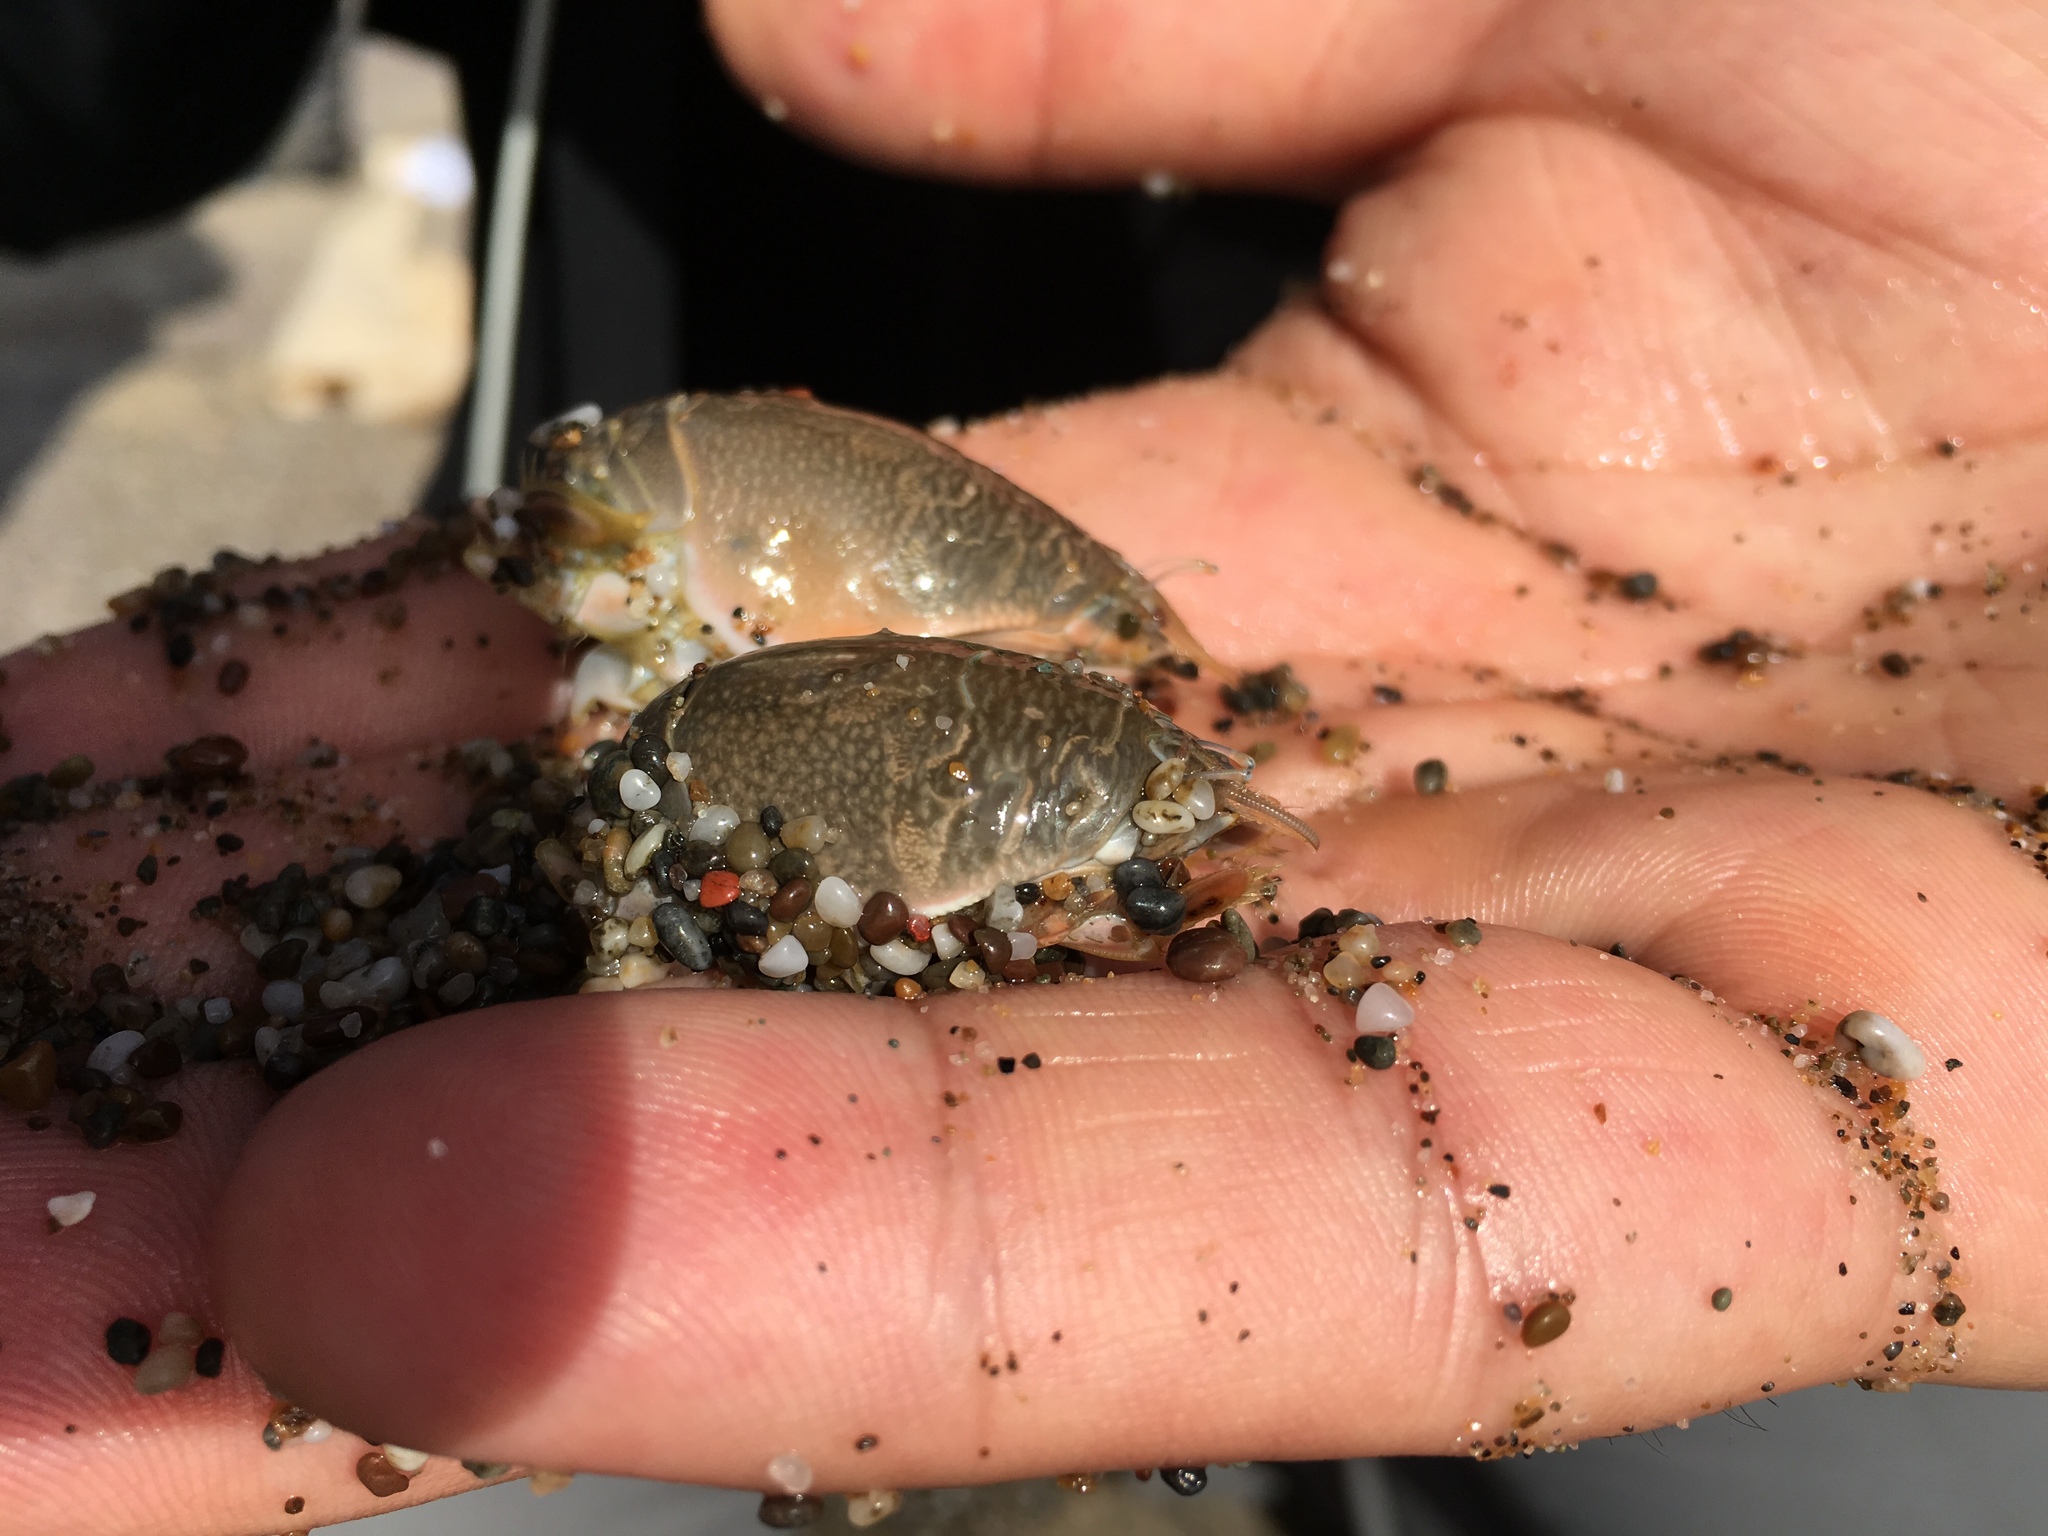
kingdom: Animalia
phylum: Arthropoda
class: Malacostraca
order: Decapoda
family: Hippidae
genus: Emerita
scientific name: Emerita analoga
